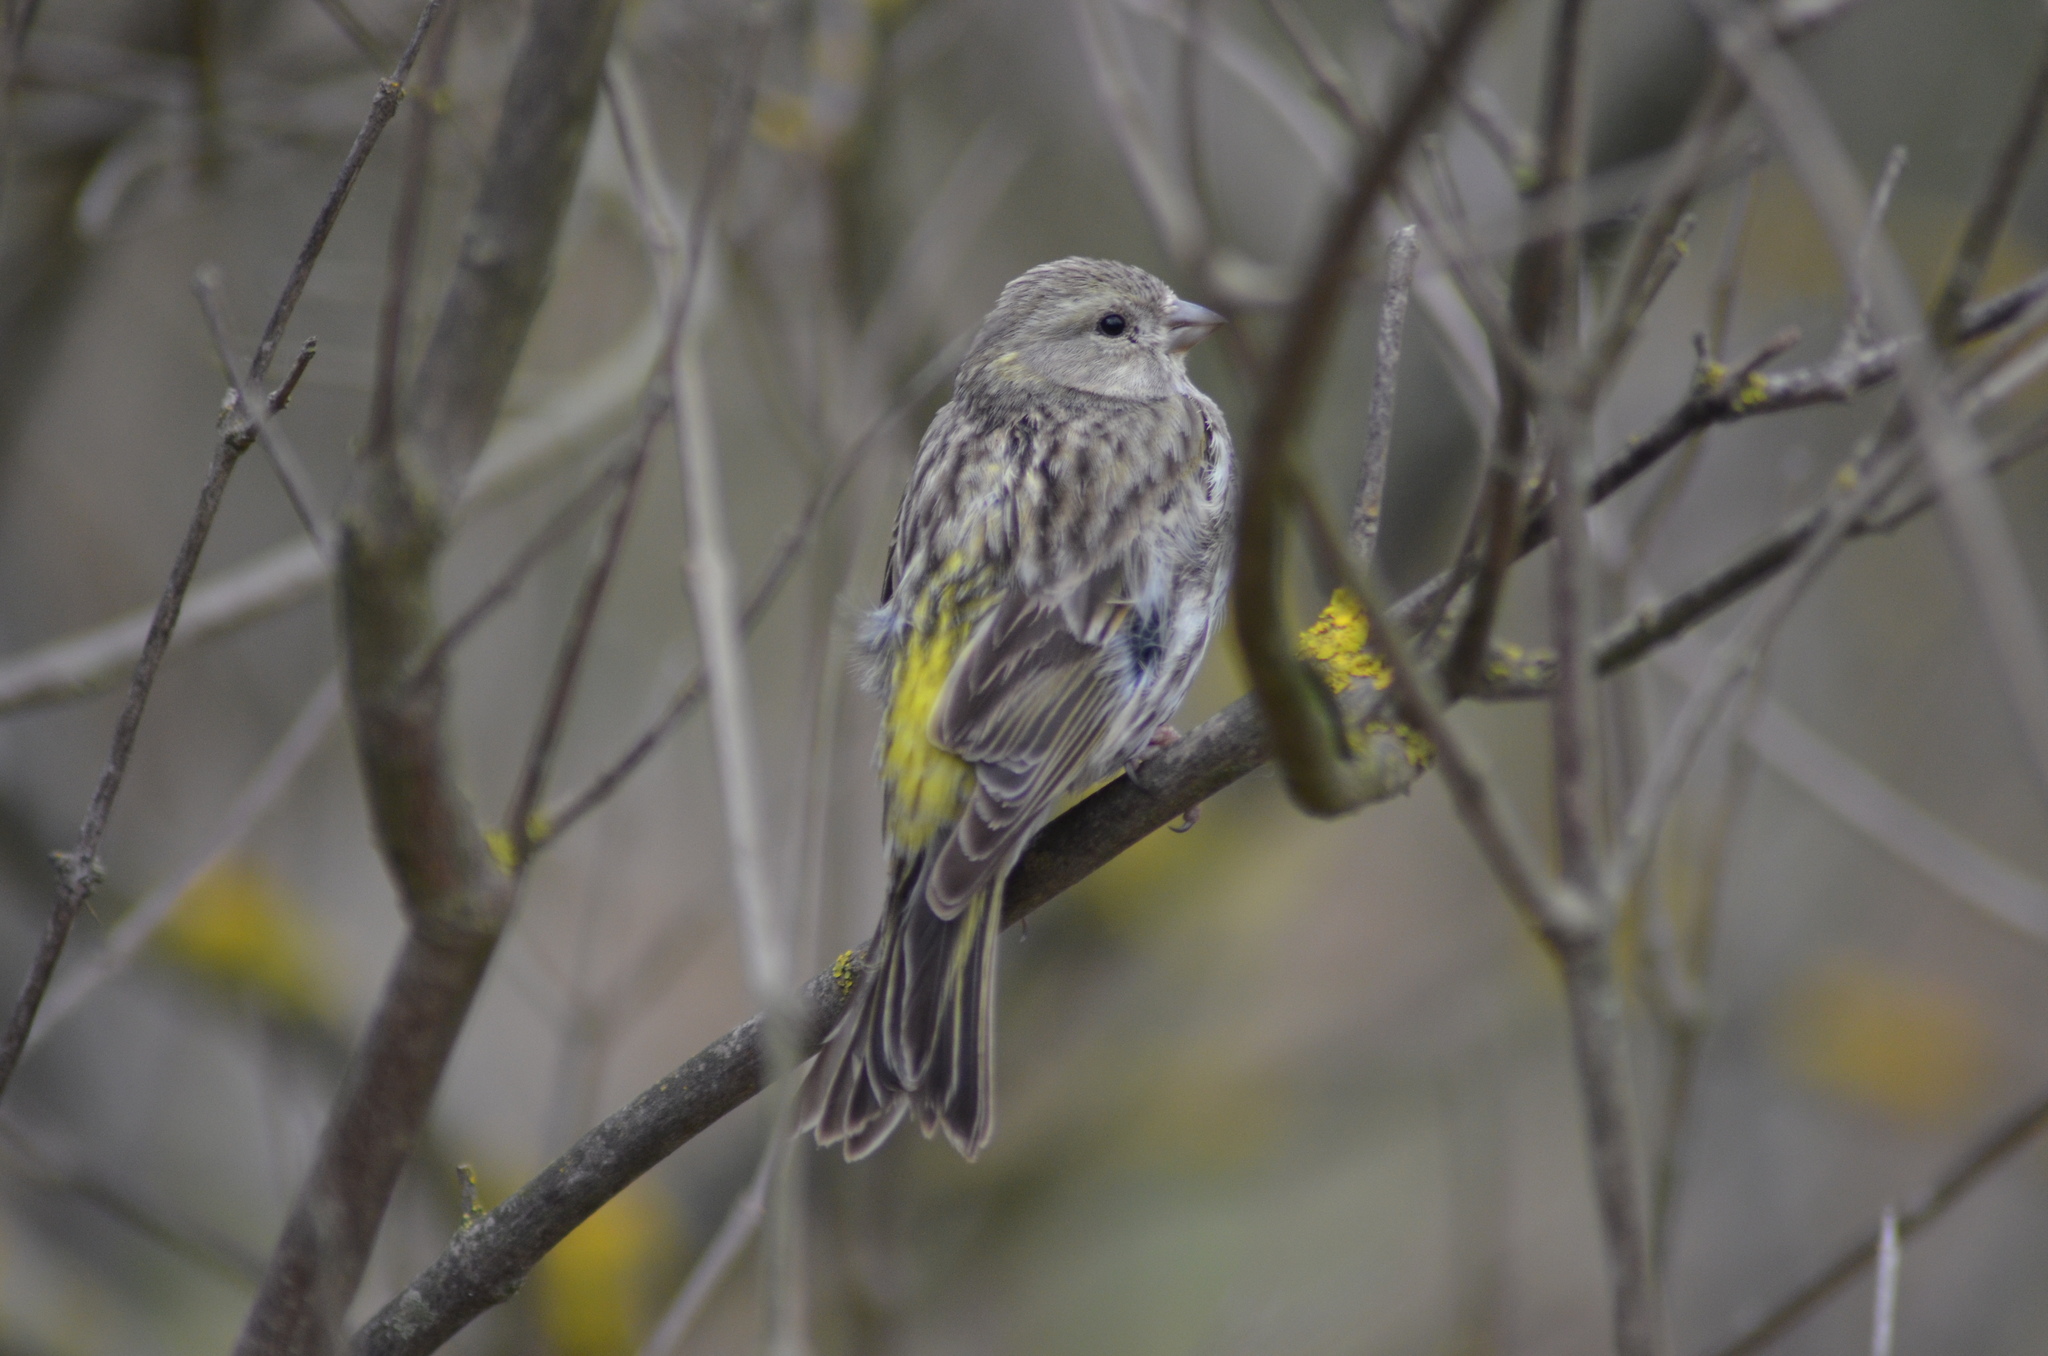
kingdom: Animalia
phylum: Chordata
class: Aves
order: Passeriformes
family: Fringillidae
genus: Serinus
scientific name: Serinus serinus
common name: European serin
